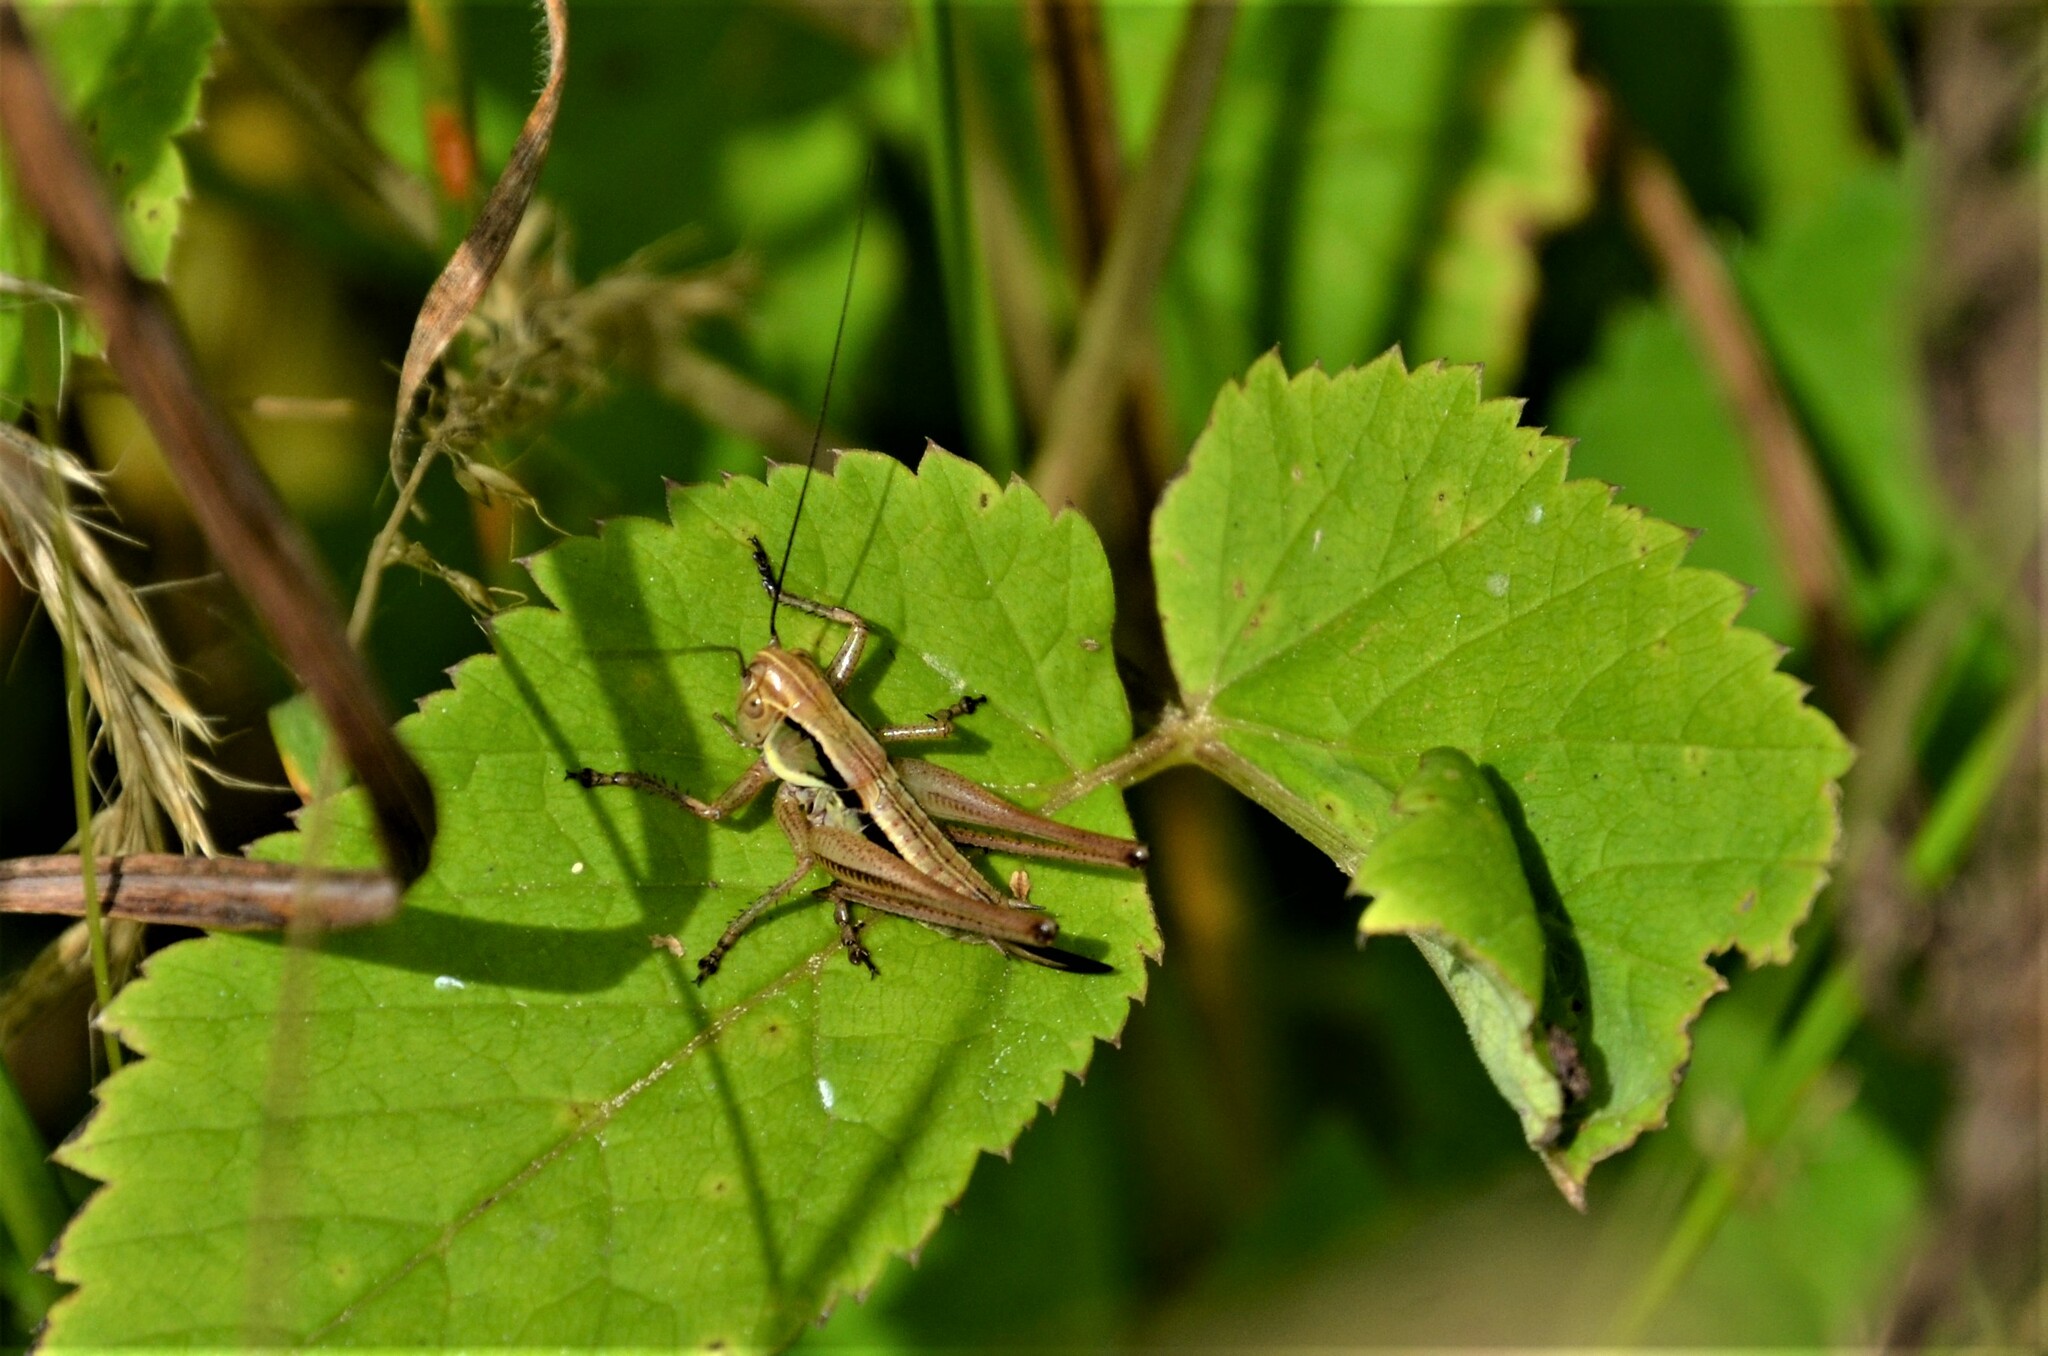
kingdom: Animalia
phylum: Arthropoda
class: Insecta
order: Orthoptera
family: Tettigoniidae
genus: Roeseliana
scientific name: Roeseliana roeselii
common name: Roesel's bush cricket
